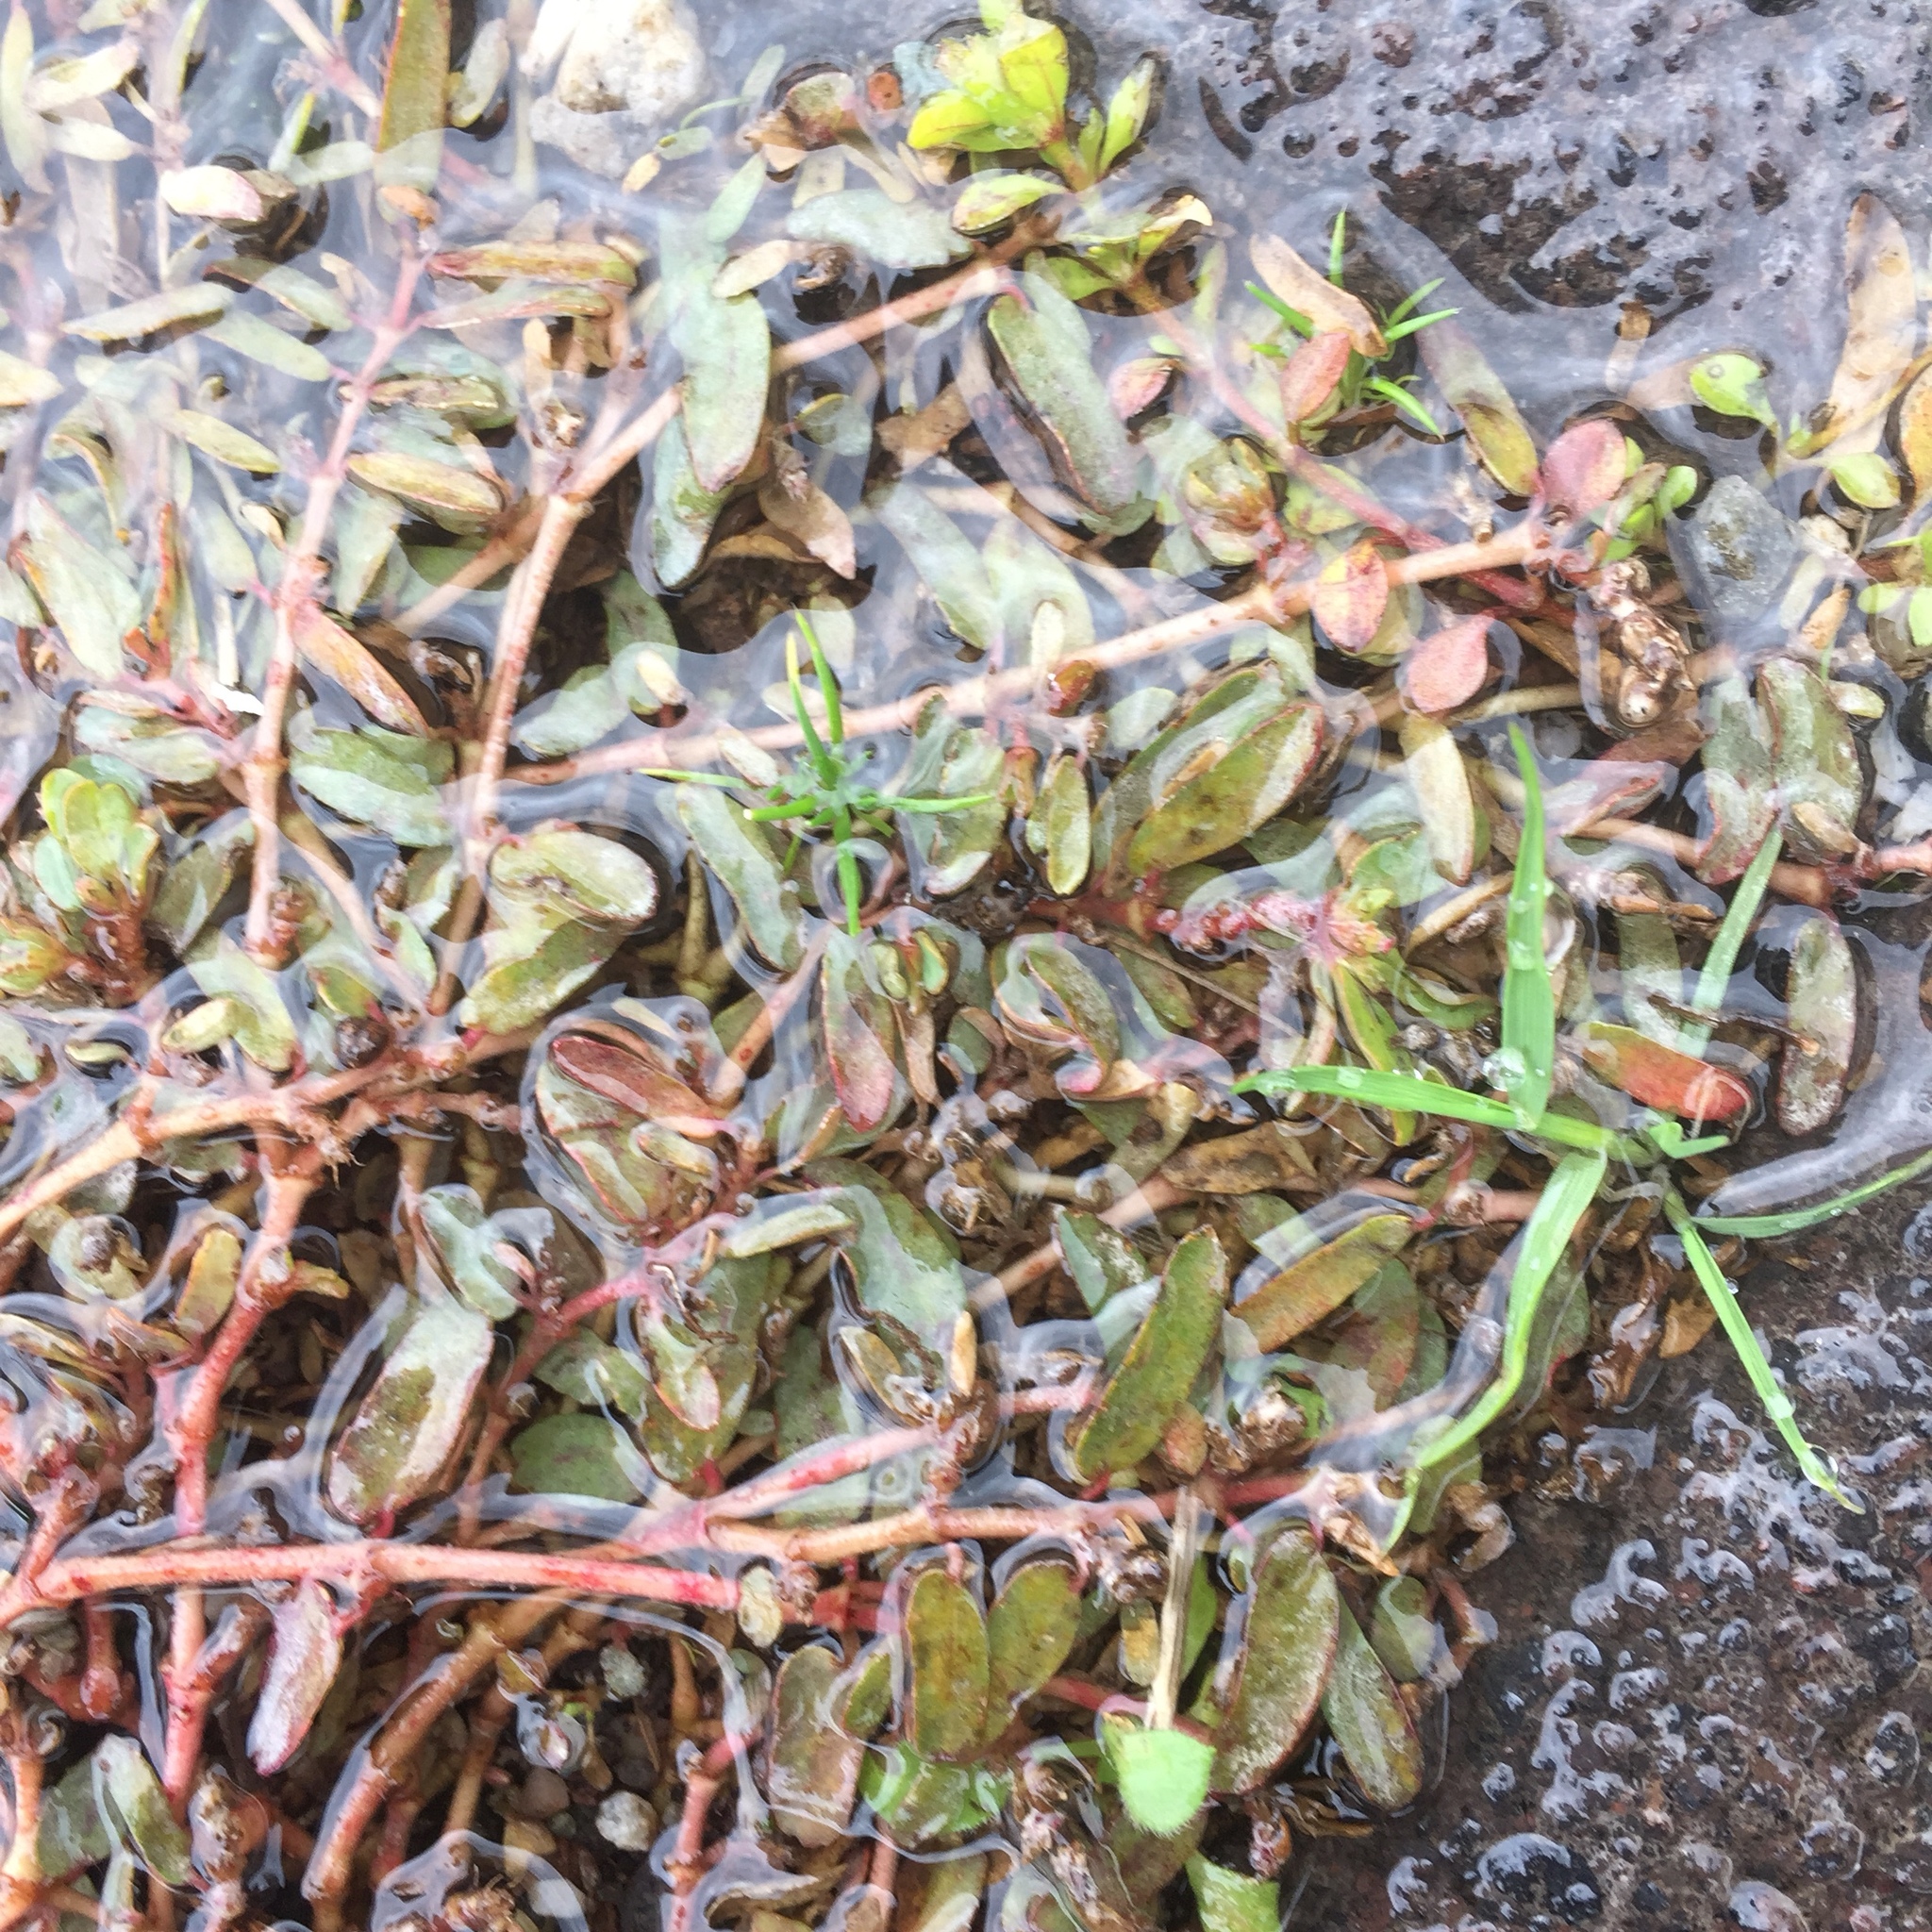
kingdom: Plantae
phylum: Tracheophyta
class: Magnoliopsida
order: Malpighiales
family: Euphorbiaceae
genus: Euphorbia
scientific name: Euphorbia maculata
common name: Spotted spurge
